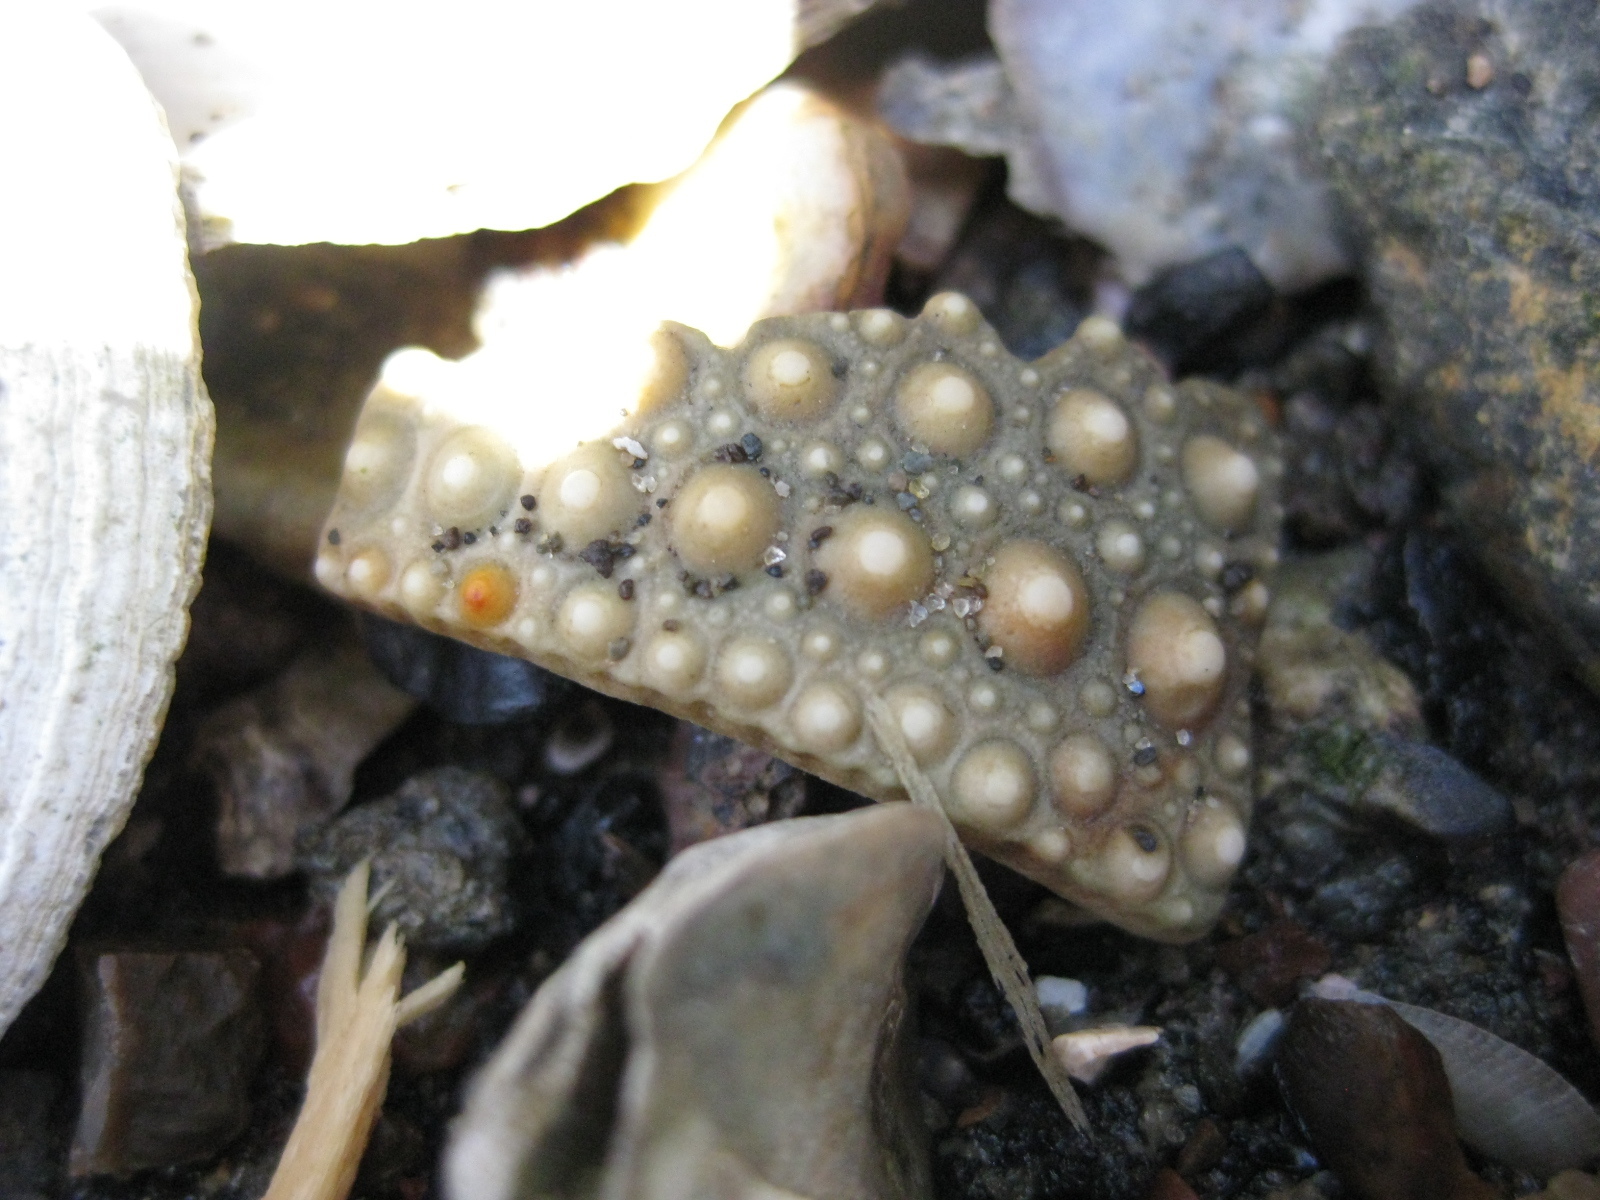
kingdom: Animalia
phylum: Echinodermata
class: Echinoidea
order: Camarodonta
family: Echinometridae
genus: Evechinus
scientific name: Evechinus chloroticus
